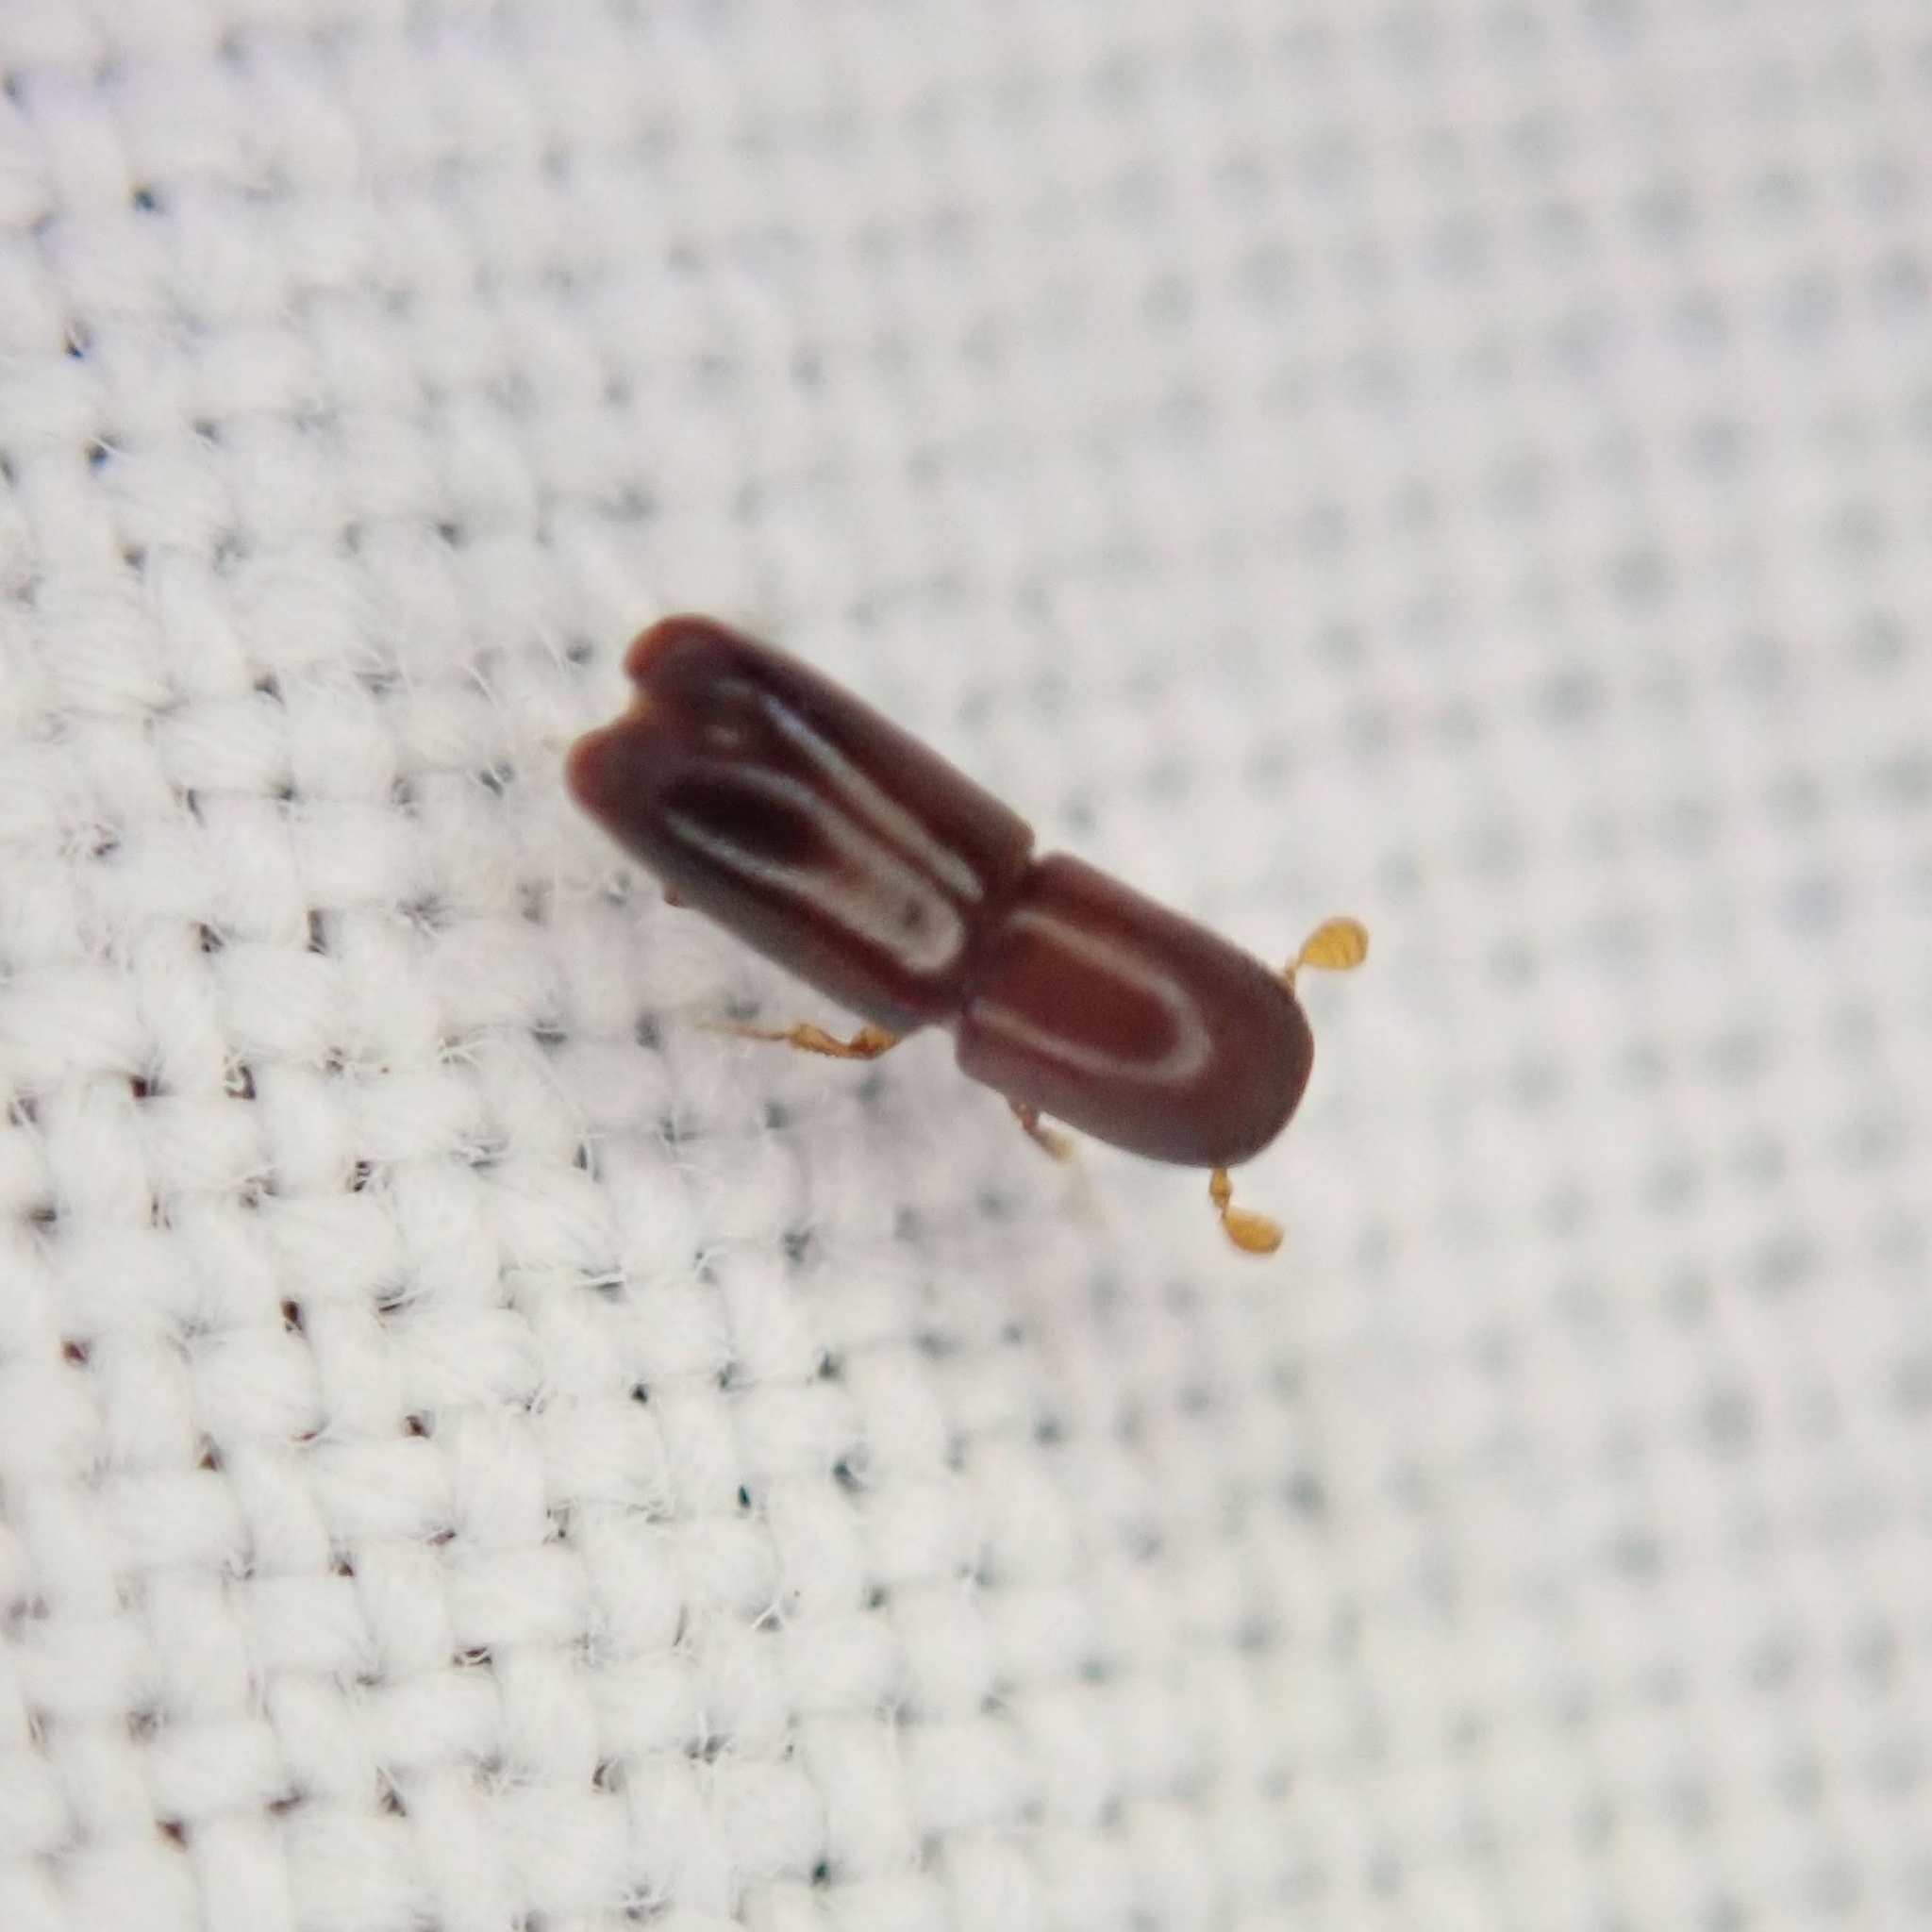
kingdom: Animalia
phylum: Arthropoda
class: Insecta
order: Coleoptera
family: Curculionidae
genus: Monarthrum
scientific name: Monarthrum mali
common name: Bark beetle
